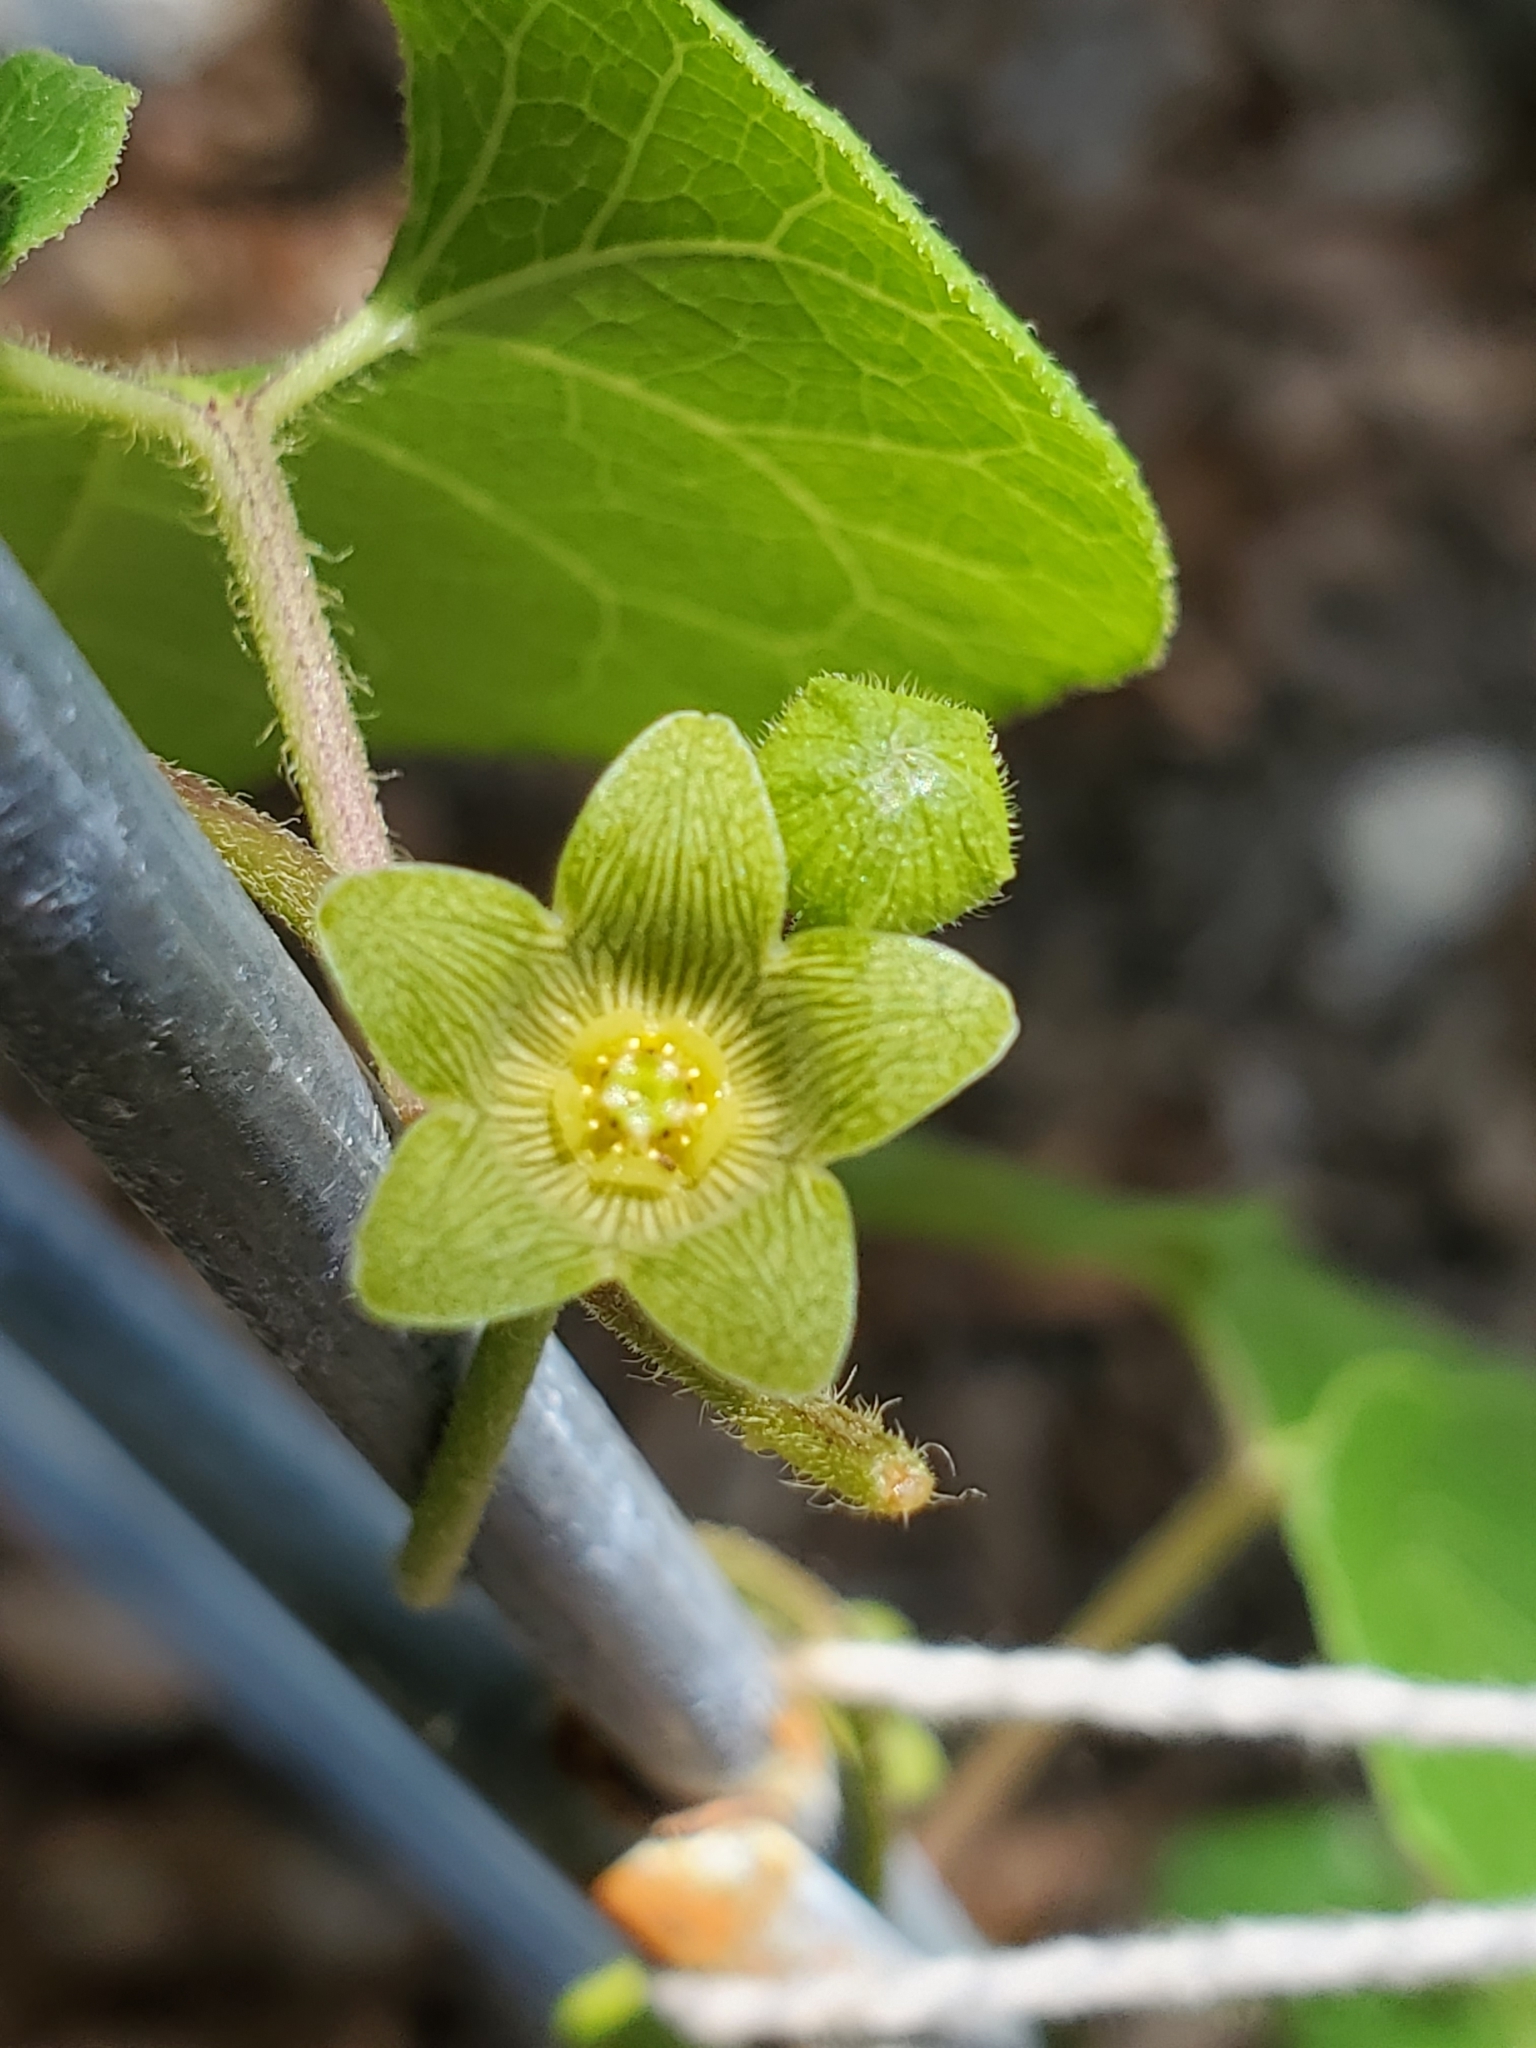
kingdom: Plantae
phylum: Tracheophyta
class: Magnoliopsida
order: Gentianales
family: Apocynaceae
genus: Matelea
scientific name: Matelea edwardsensis
